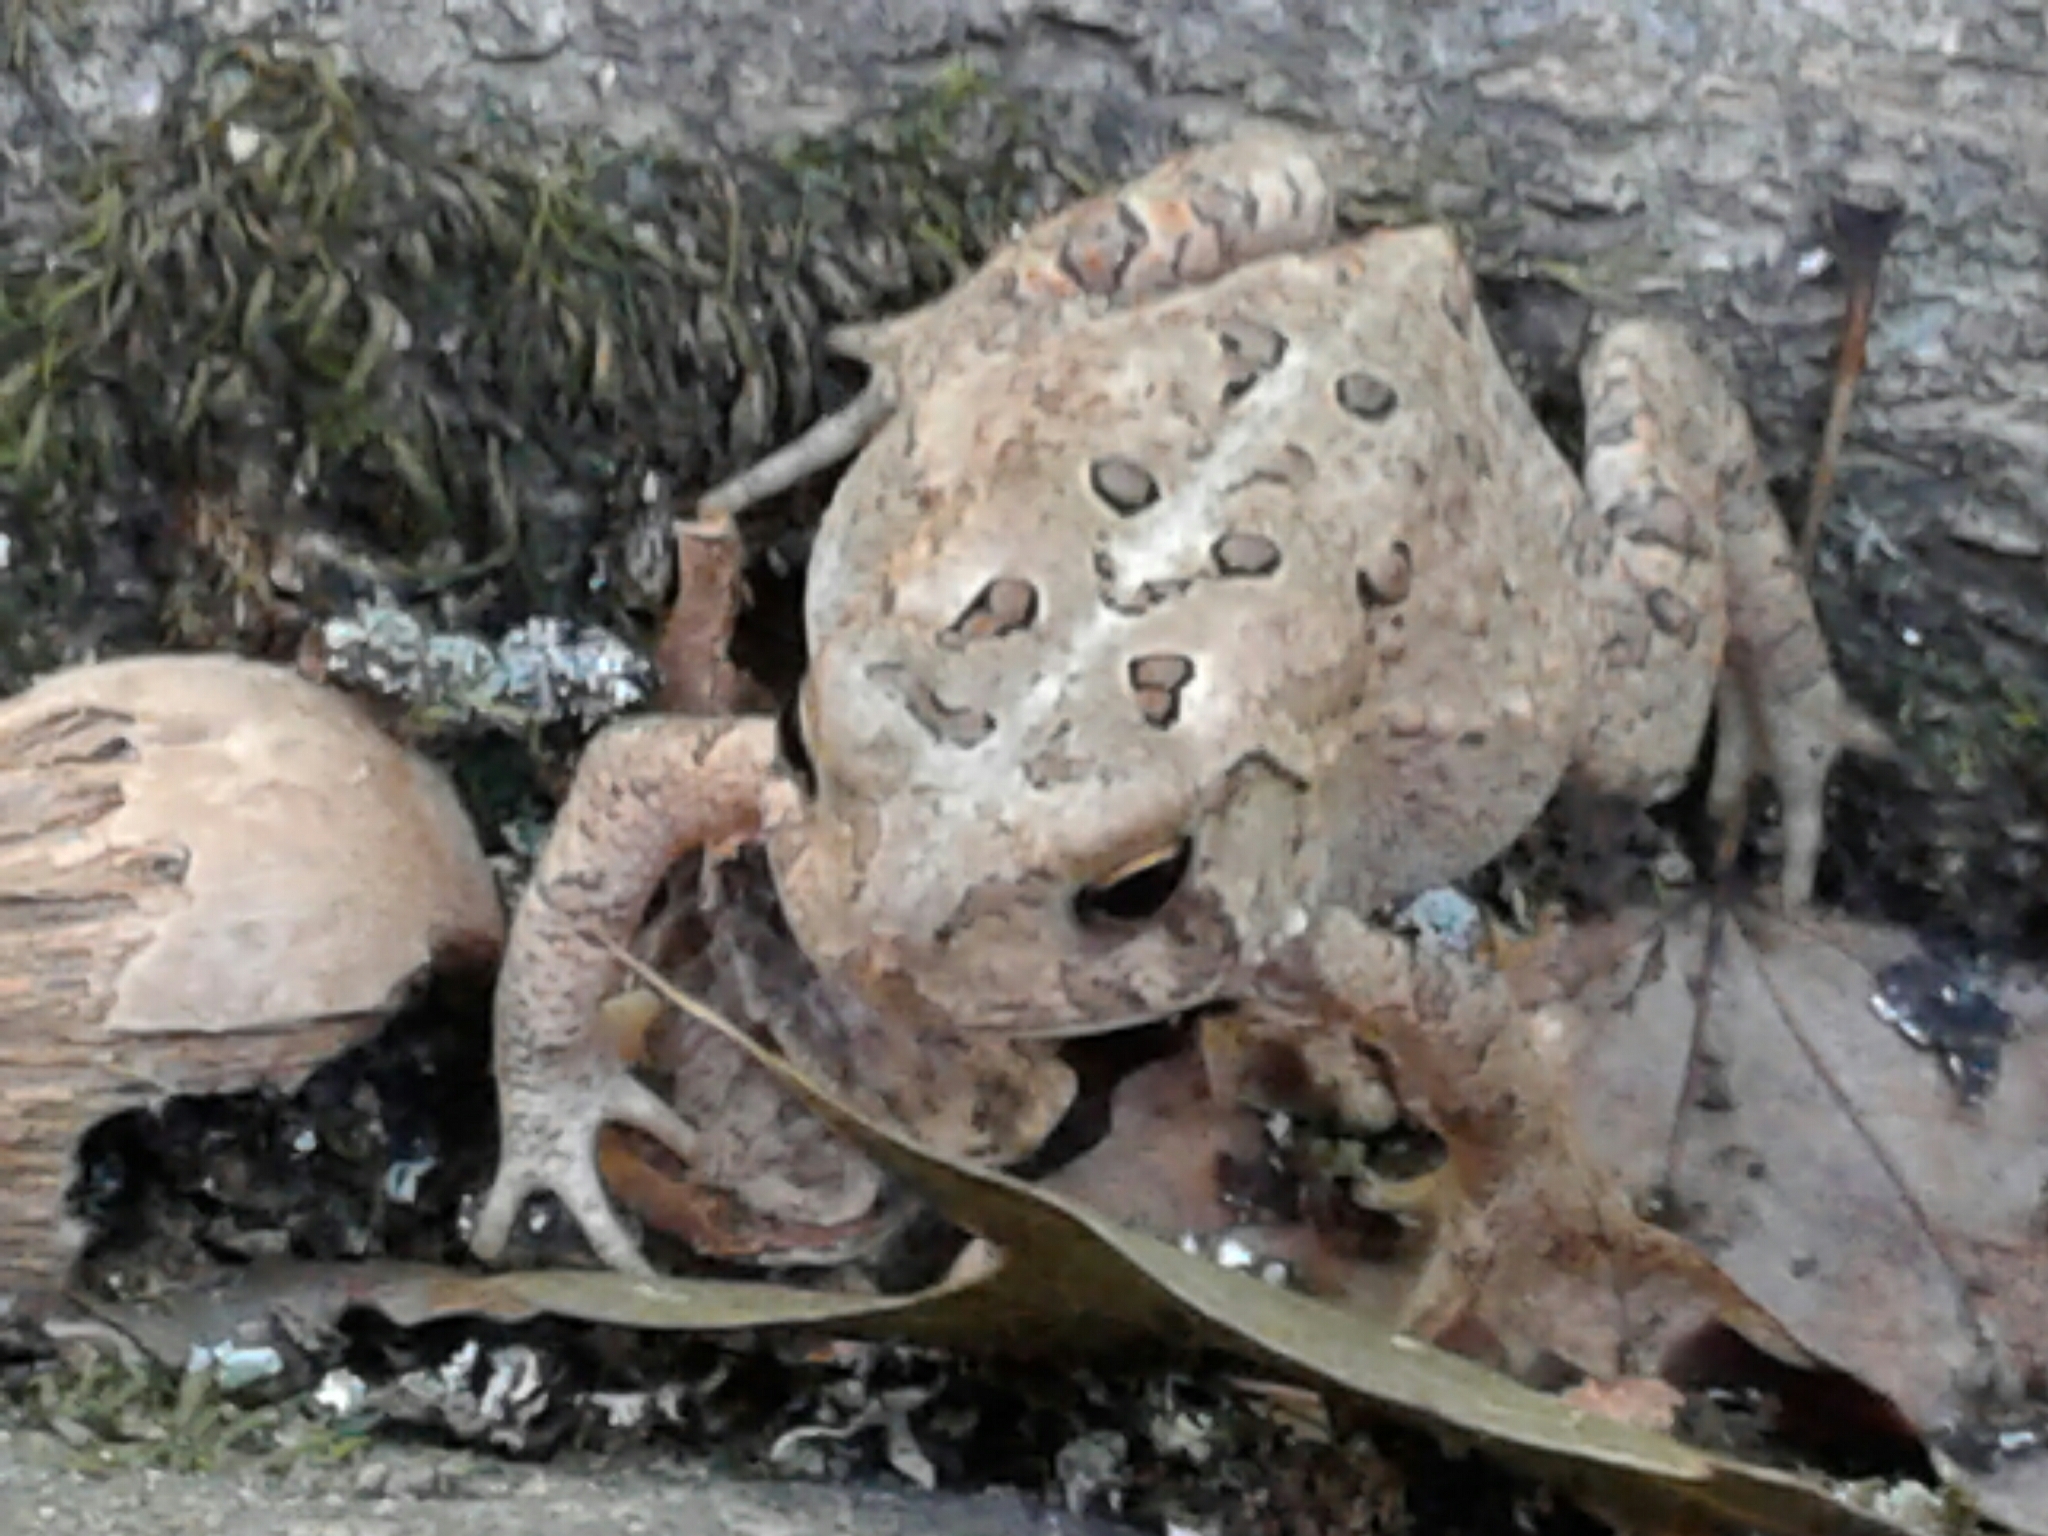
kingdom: Animalia
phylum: Chordata
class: Amphibia
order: Anura
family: Bufonidae
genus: Anaxyrus
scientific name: Anaxyrus americanus
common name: American toad
